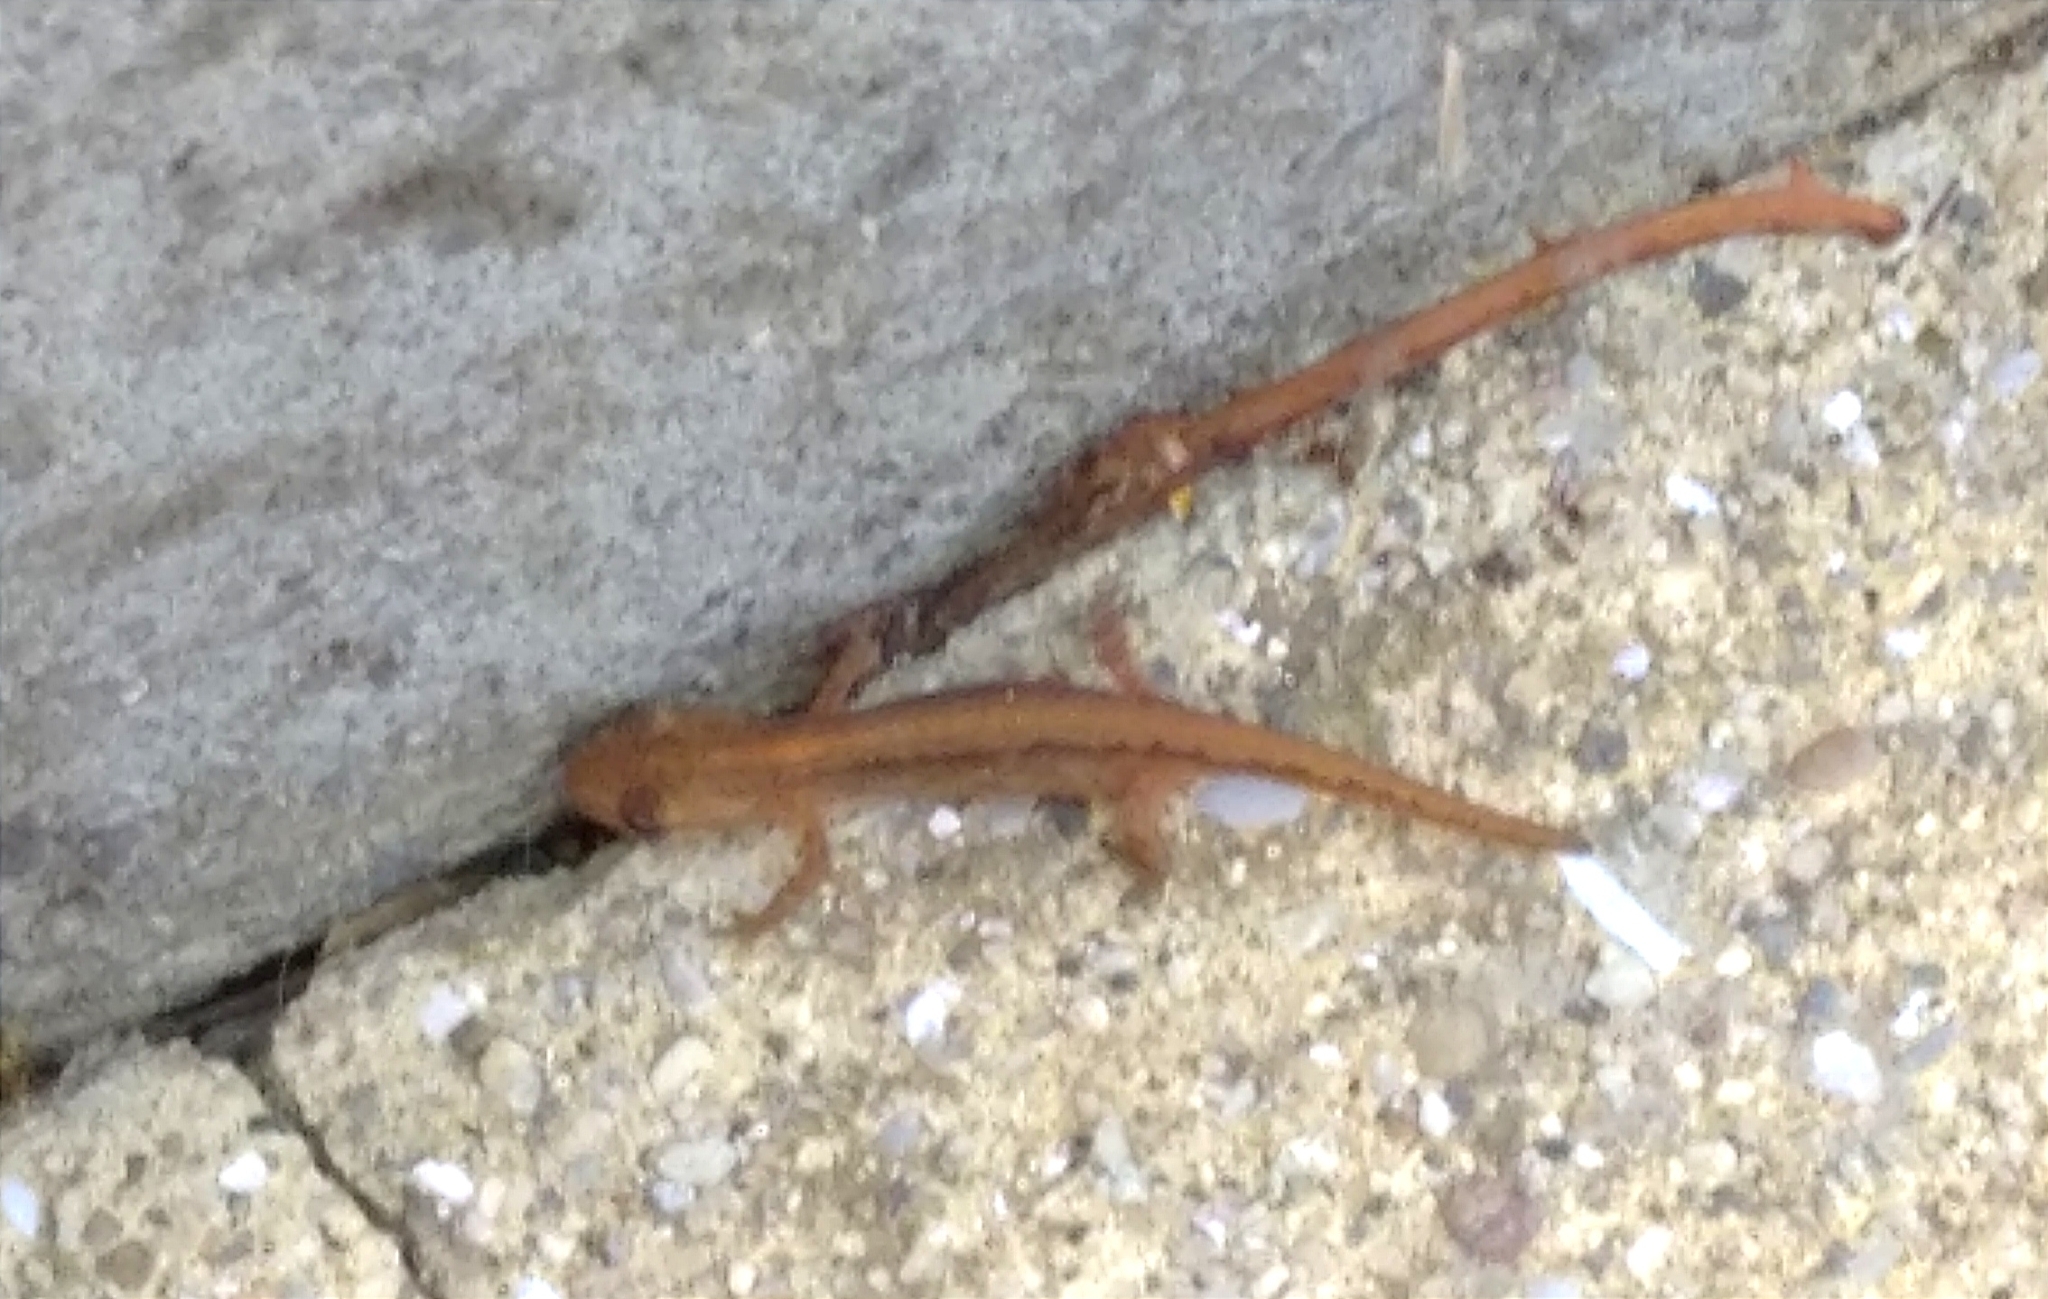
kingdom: Animalia
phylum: Chordata
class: Amphibia
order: Caudata
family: Salamandridae
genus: Lissotriton
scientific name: Lissotriton schmidtleri
